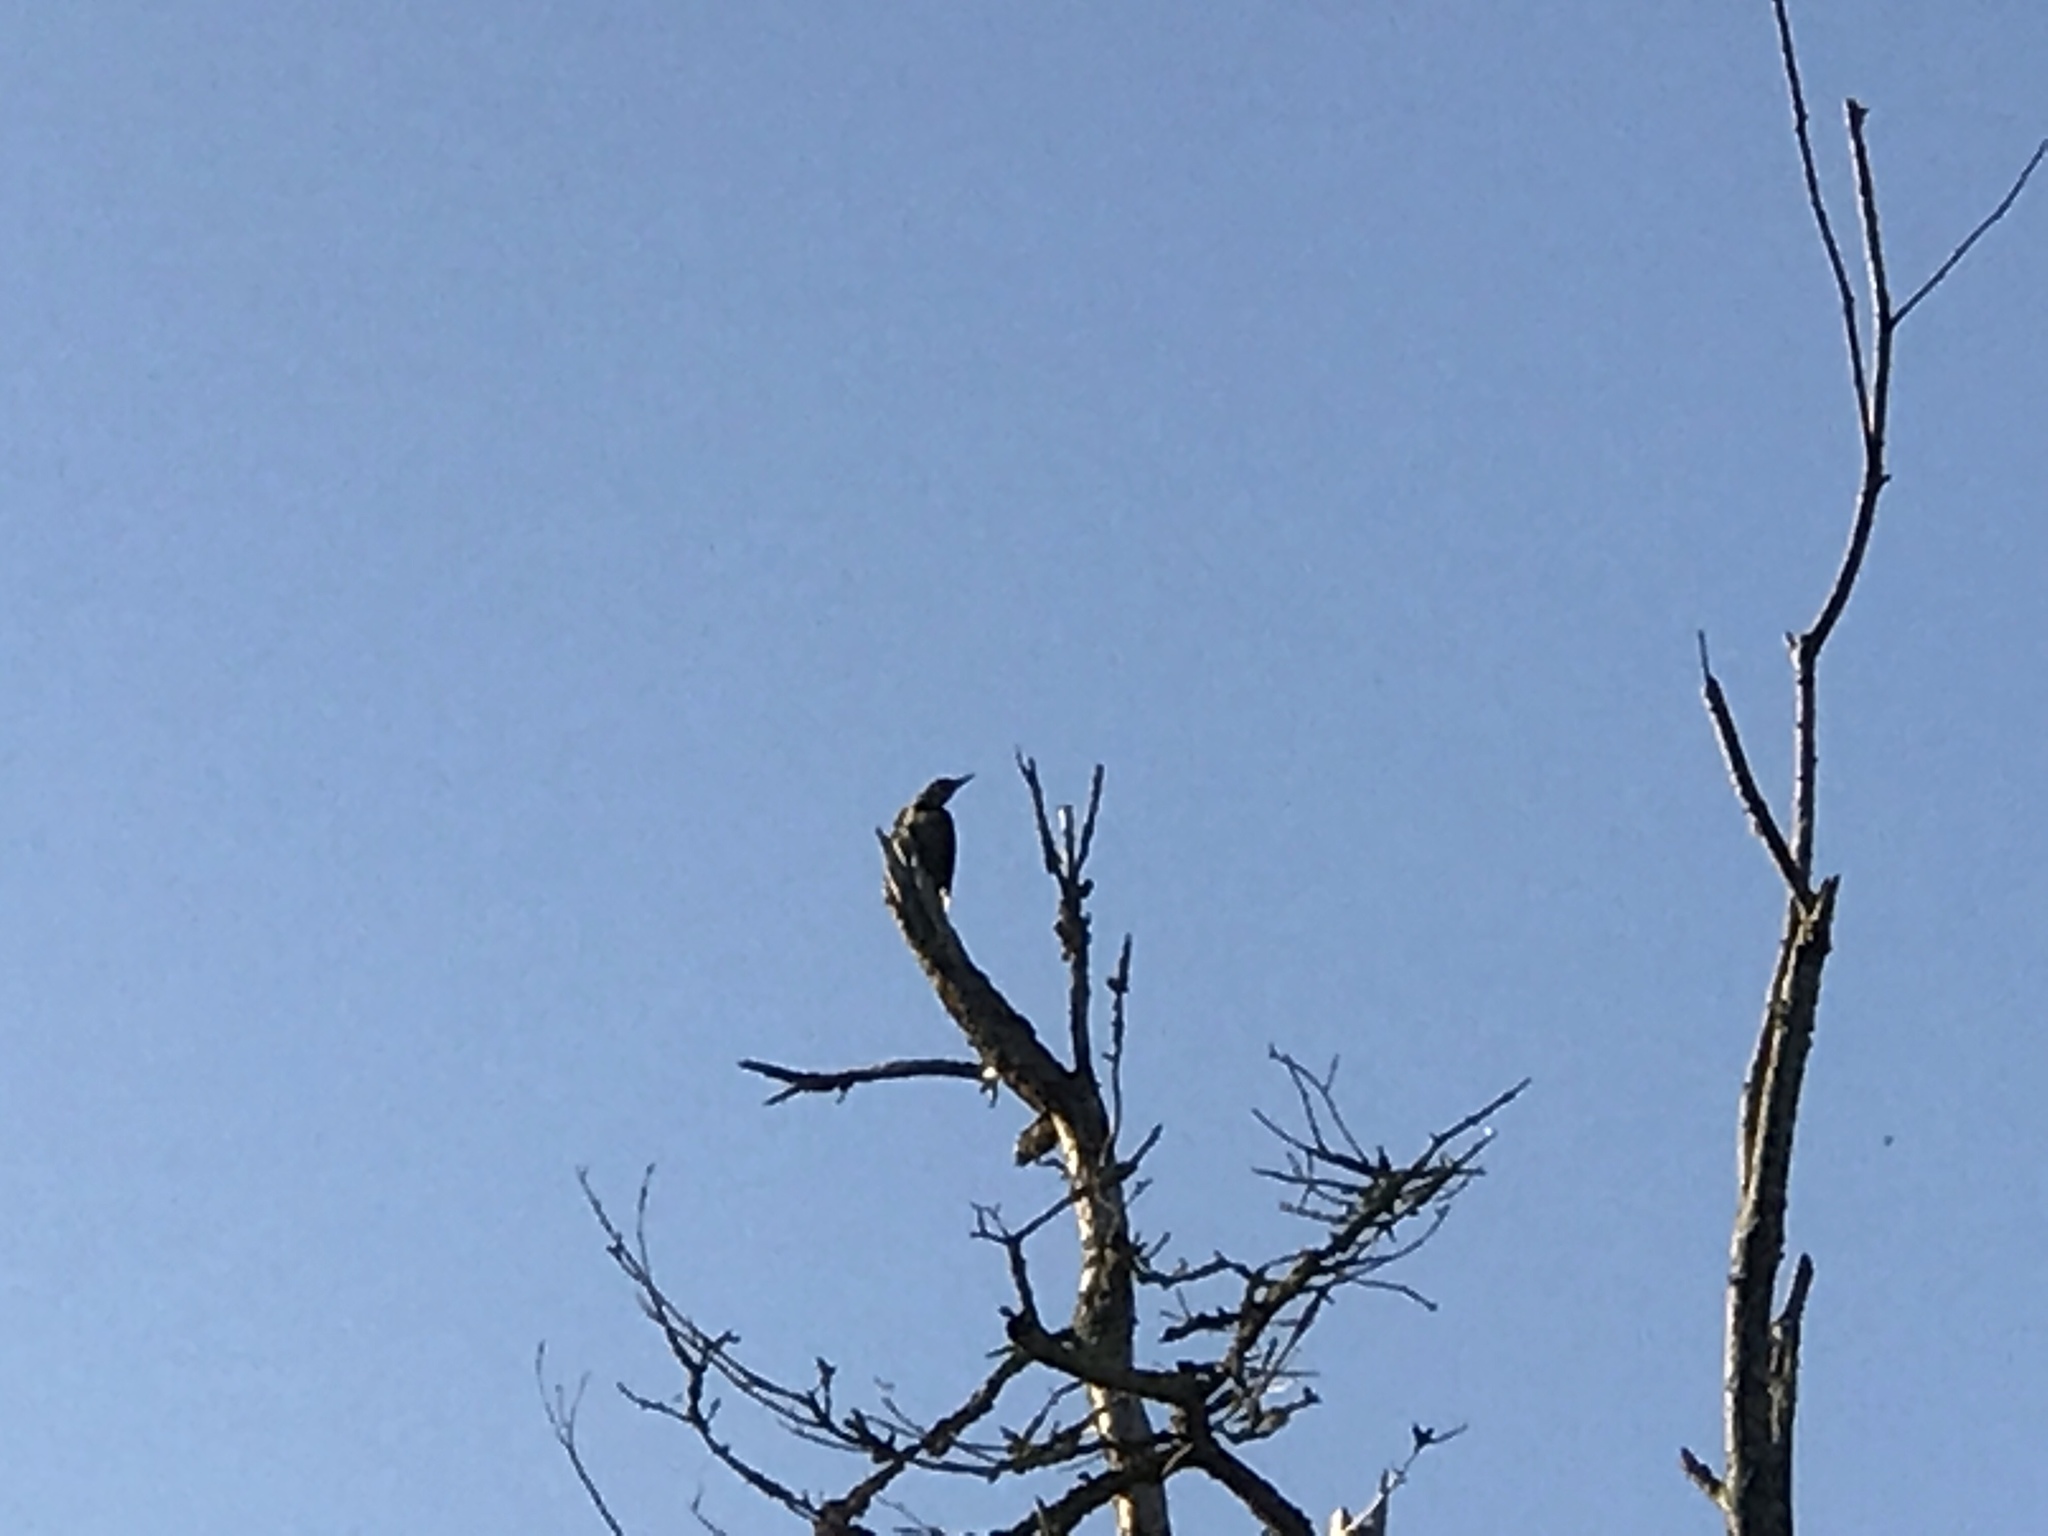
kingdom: Animalia
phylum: Chordata
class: Aves
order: Piciformes
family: Picidae
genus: Colaptes
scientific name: Colaptes auratus
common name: Northern flicker
